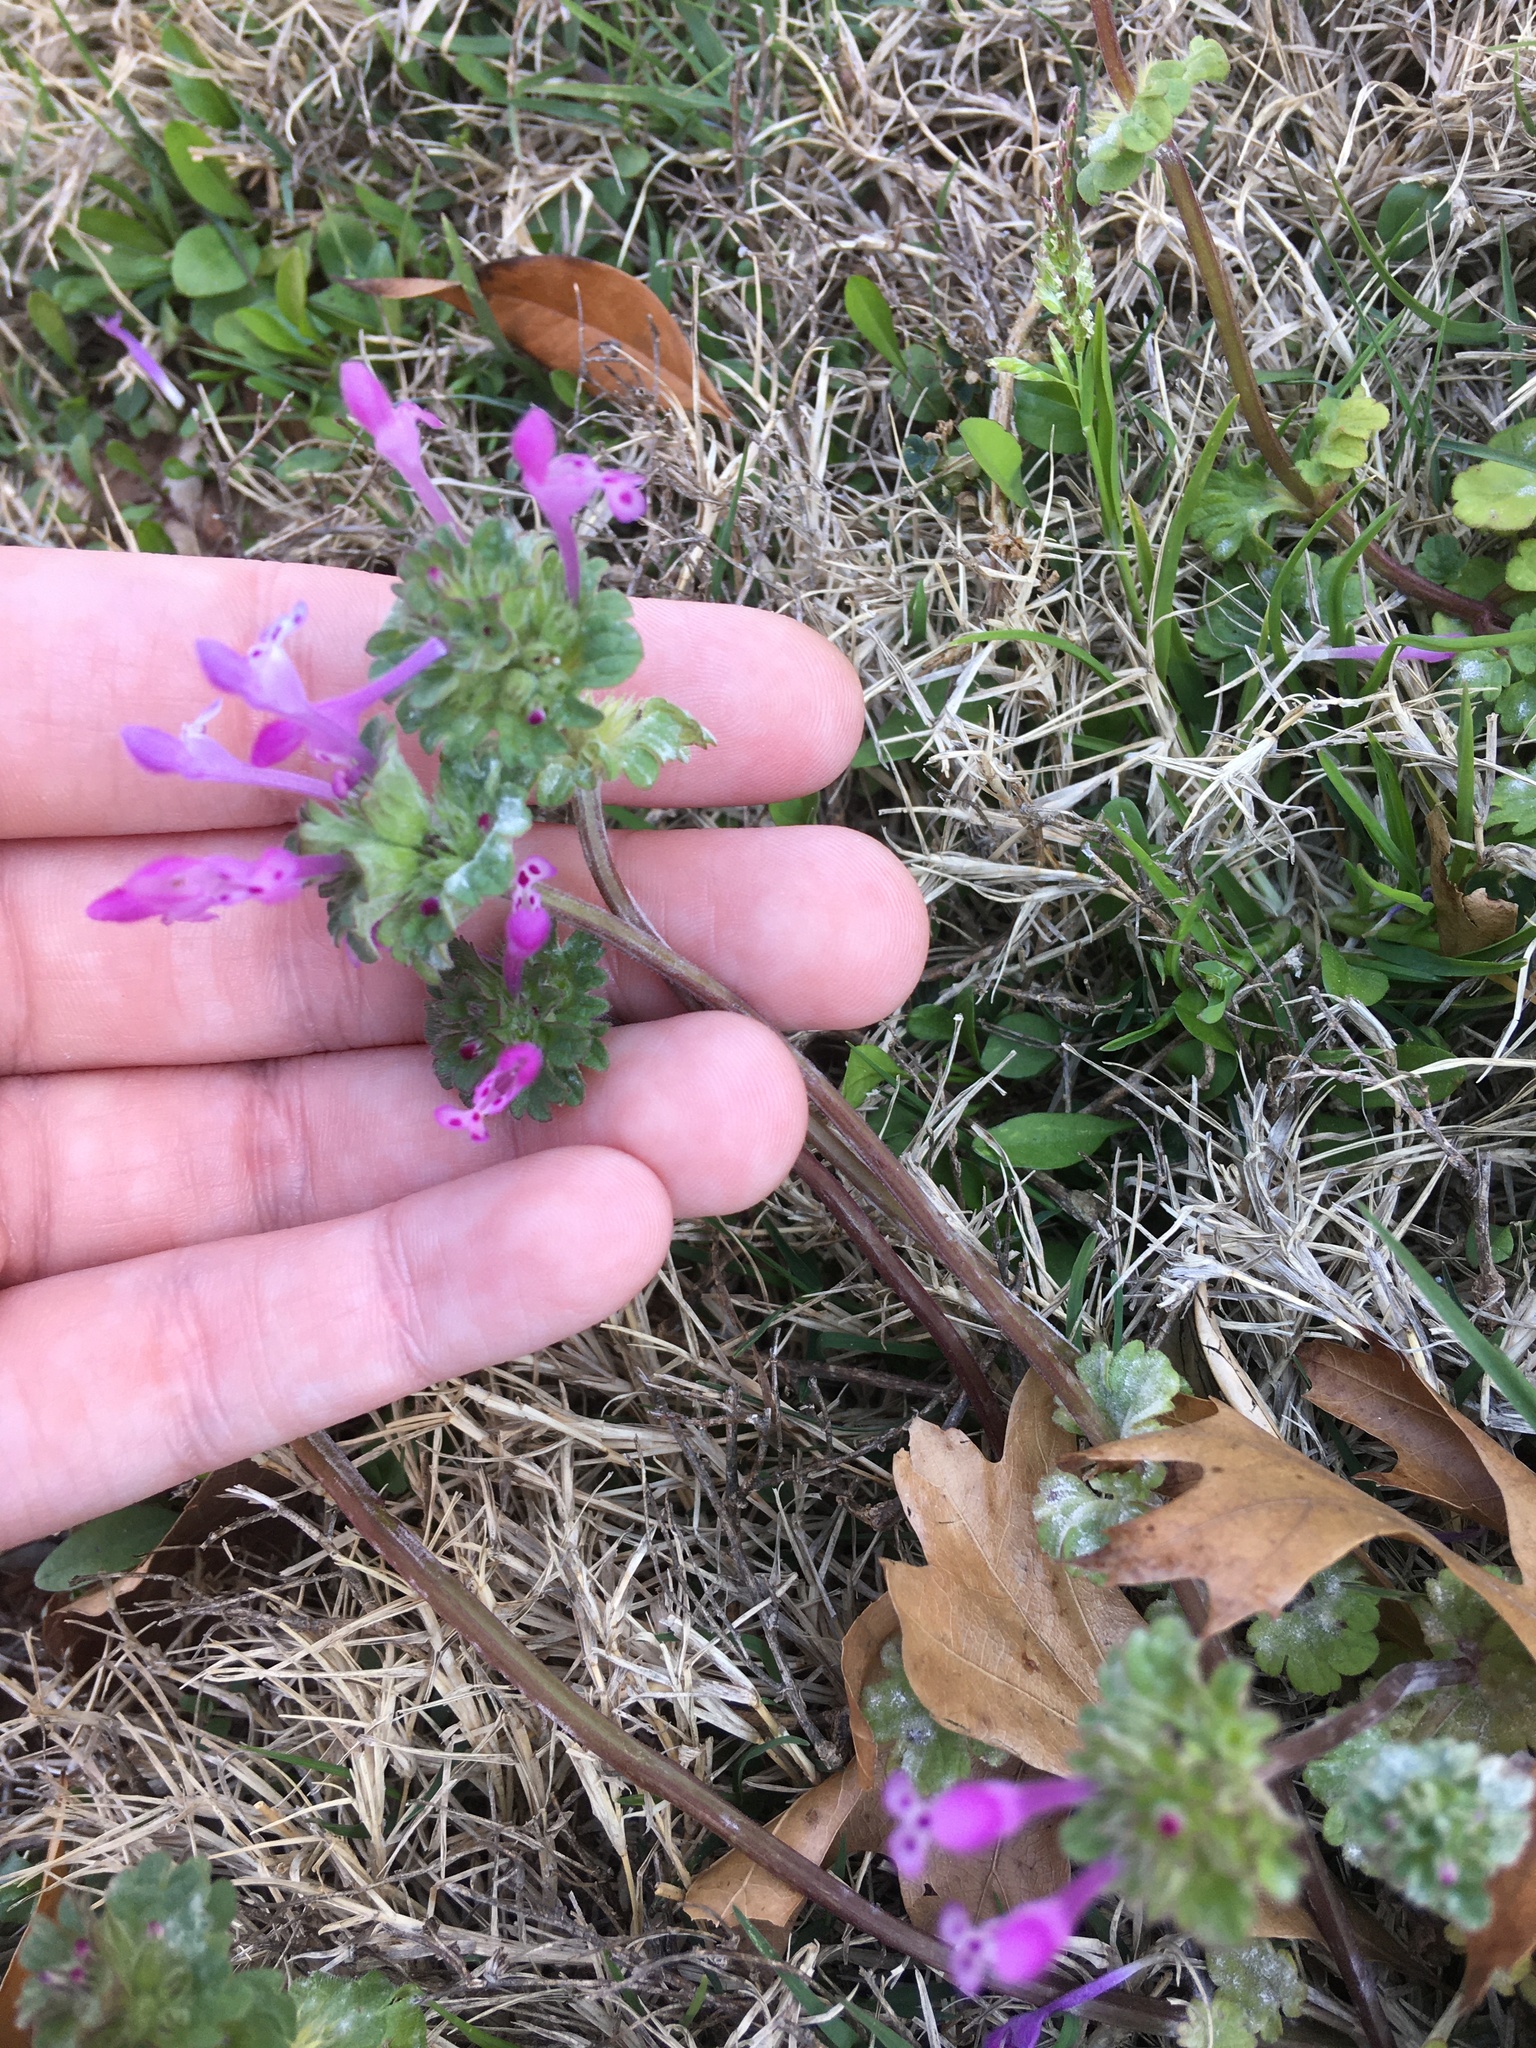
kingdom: Plantae
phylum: Tracheophyta
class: Magnoliopsida
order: Lamiales
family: Lamiaceae
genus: Lamium
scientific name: Lamium amplexicaule
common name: Henbit dead-nettle
